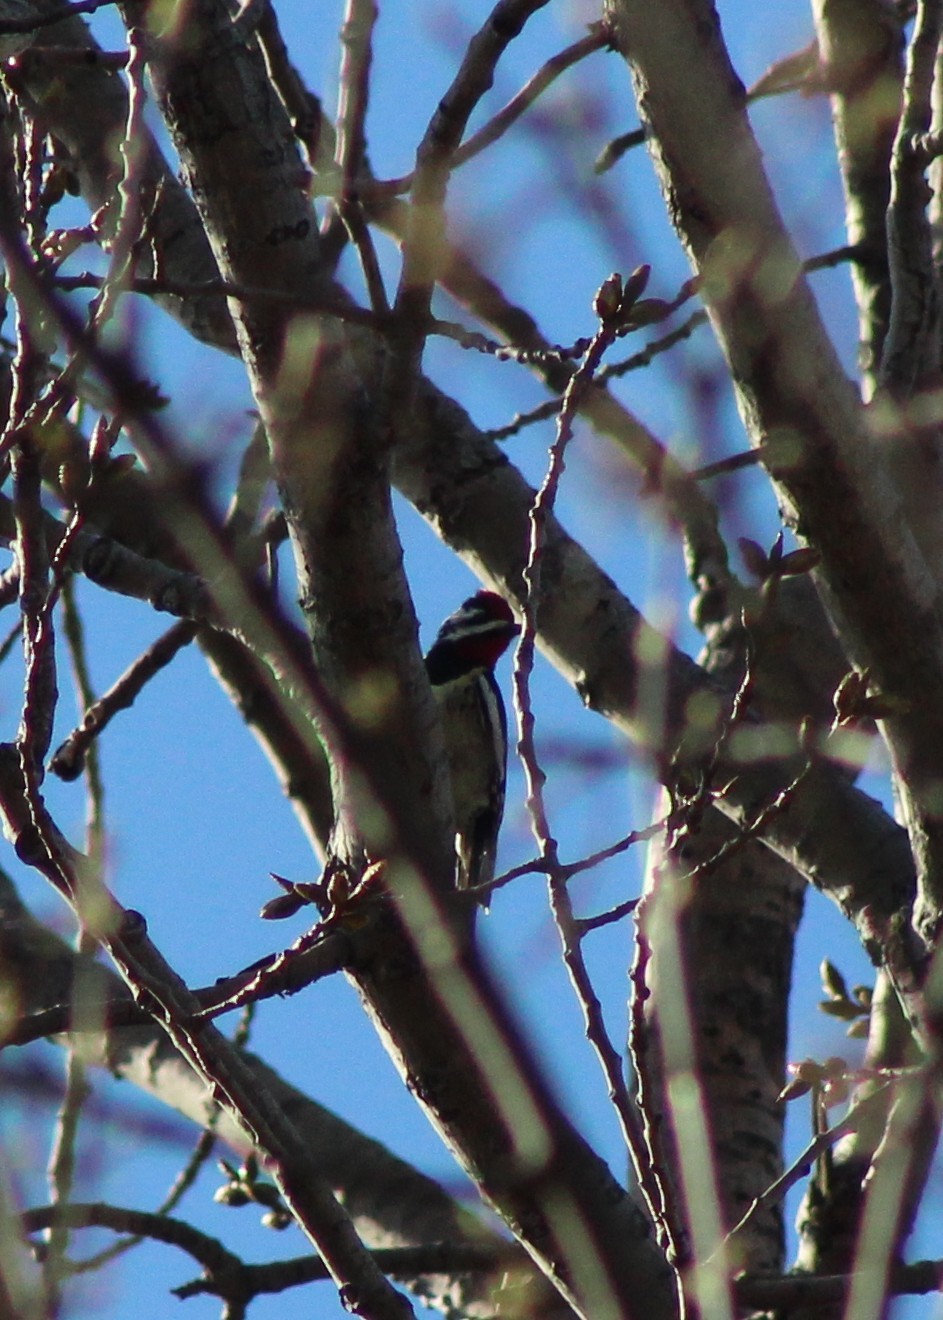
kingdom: Animalia
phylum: Chordata
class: Aves
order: Piciformes
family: Picidae
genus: Sphyrapicus
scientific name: Sphyrapicus varius
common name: Yellow-bellied sapsucker
